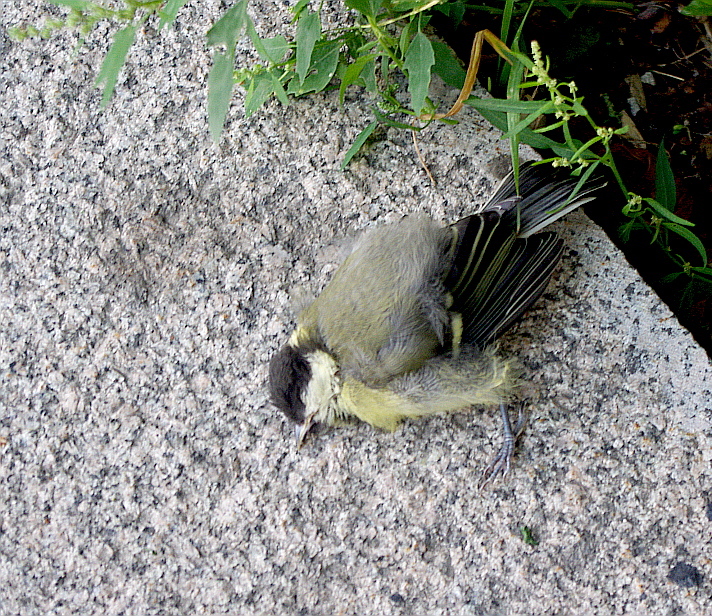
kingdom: Animalia
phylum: Chordata
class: Aves
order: Passeriformes
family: Paridae
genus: Parus
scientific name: Parus major
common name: Great tit
